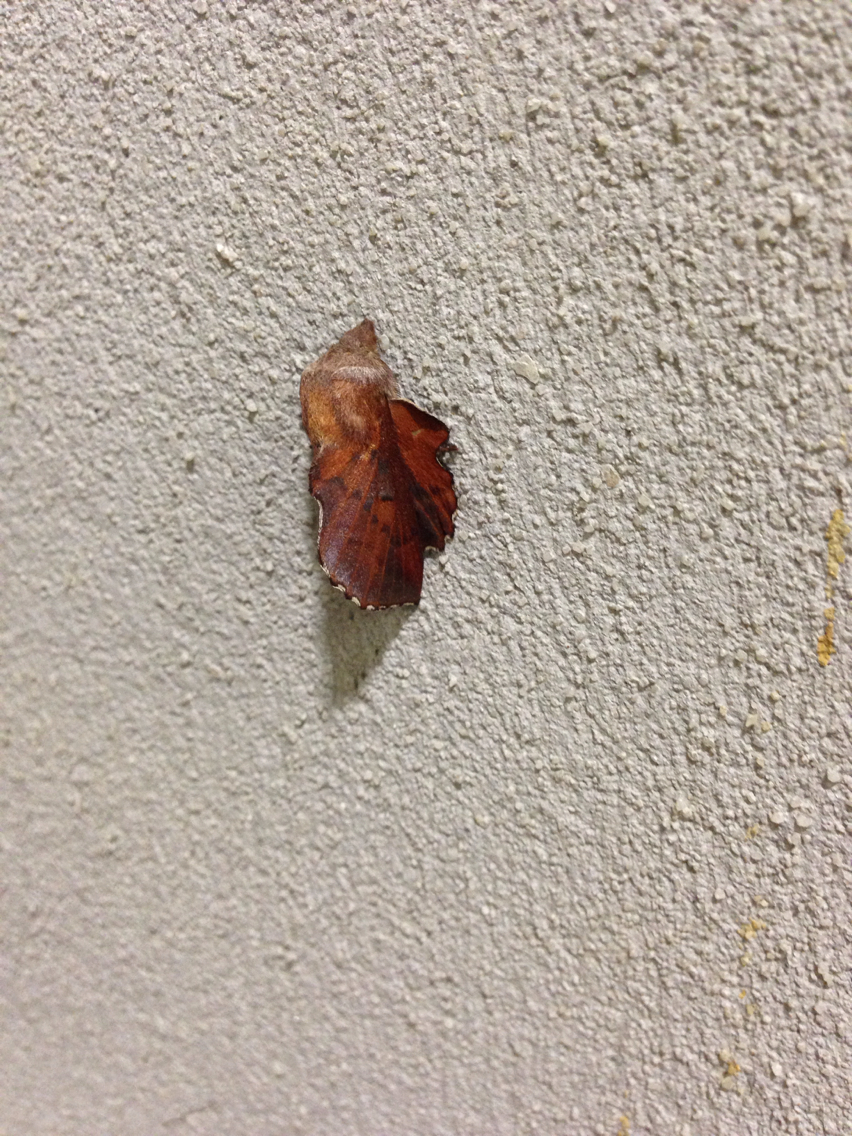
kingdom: Animalia
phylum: Arthropoda
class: Insecta
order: Lepidoptera
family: Lasiocampidae
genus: Phyllodesma
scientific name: Phyllodesma americana
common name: American lappet moth
